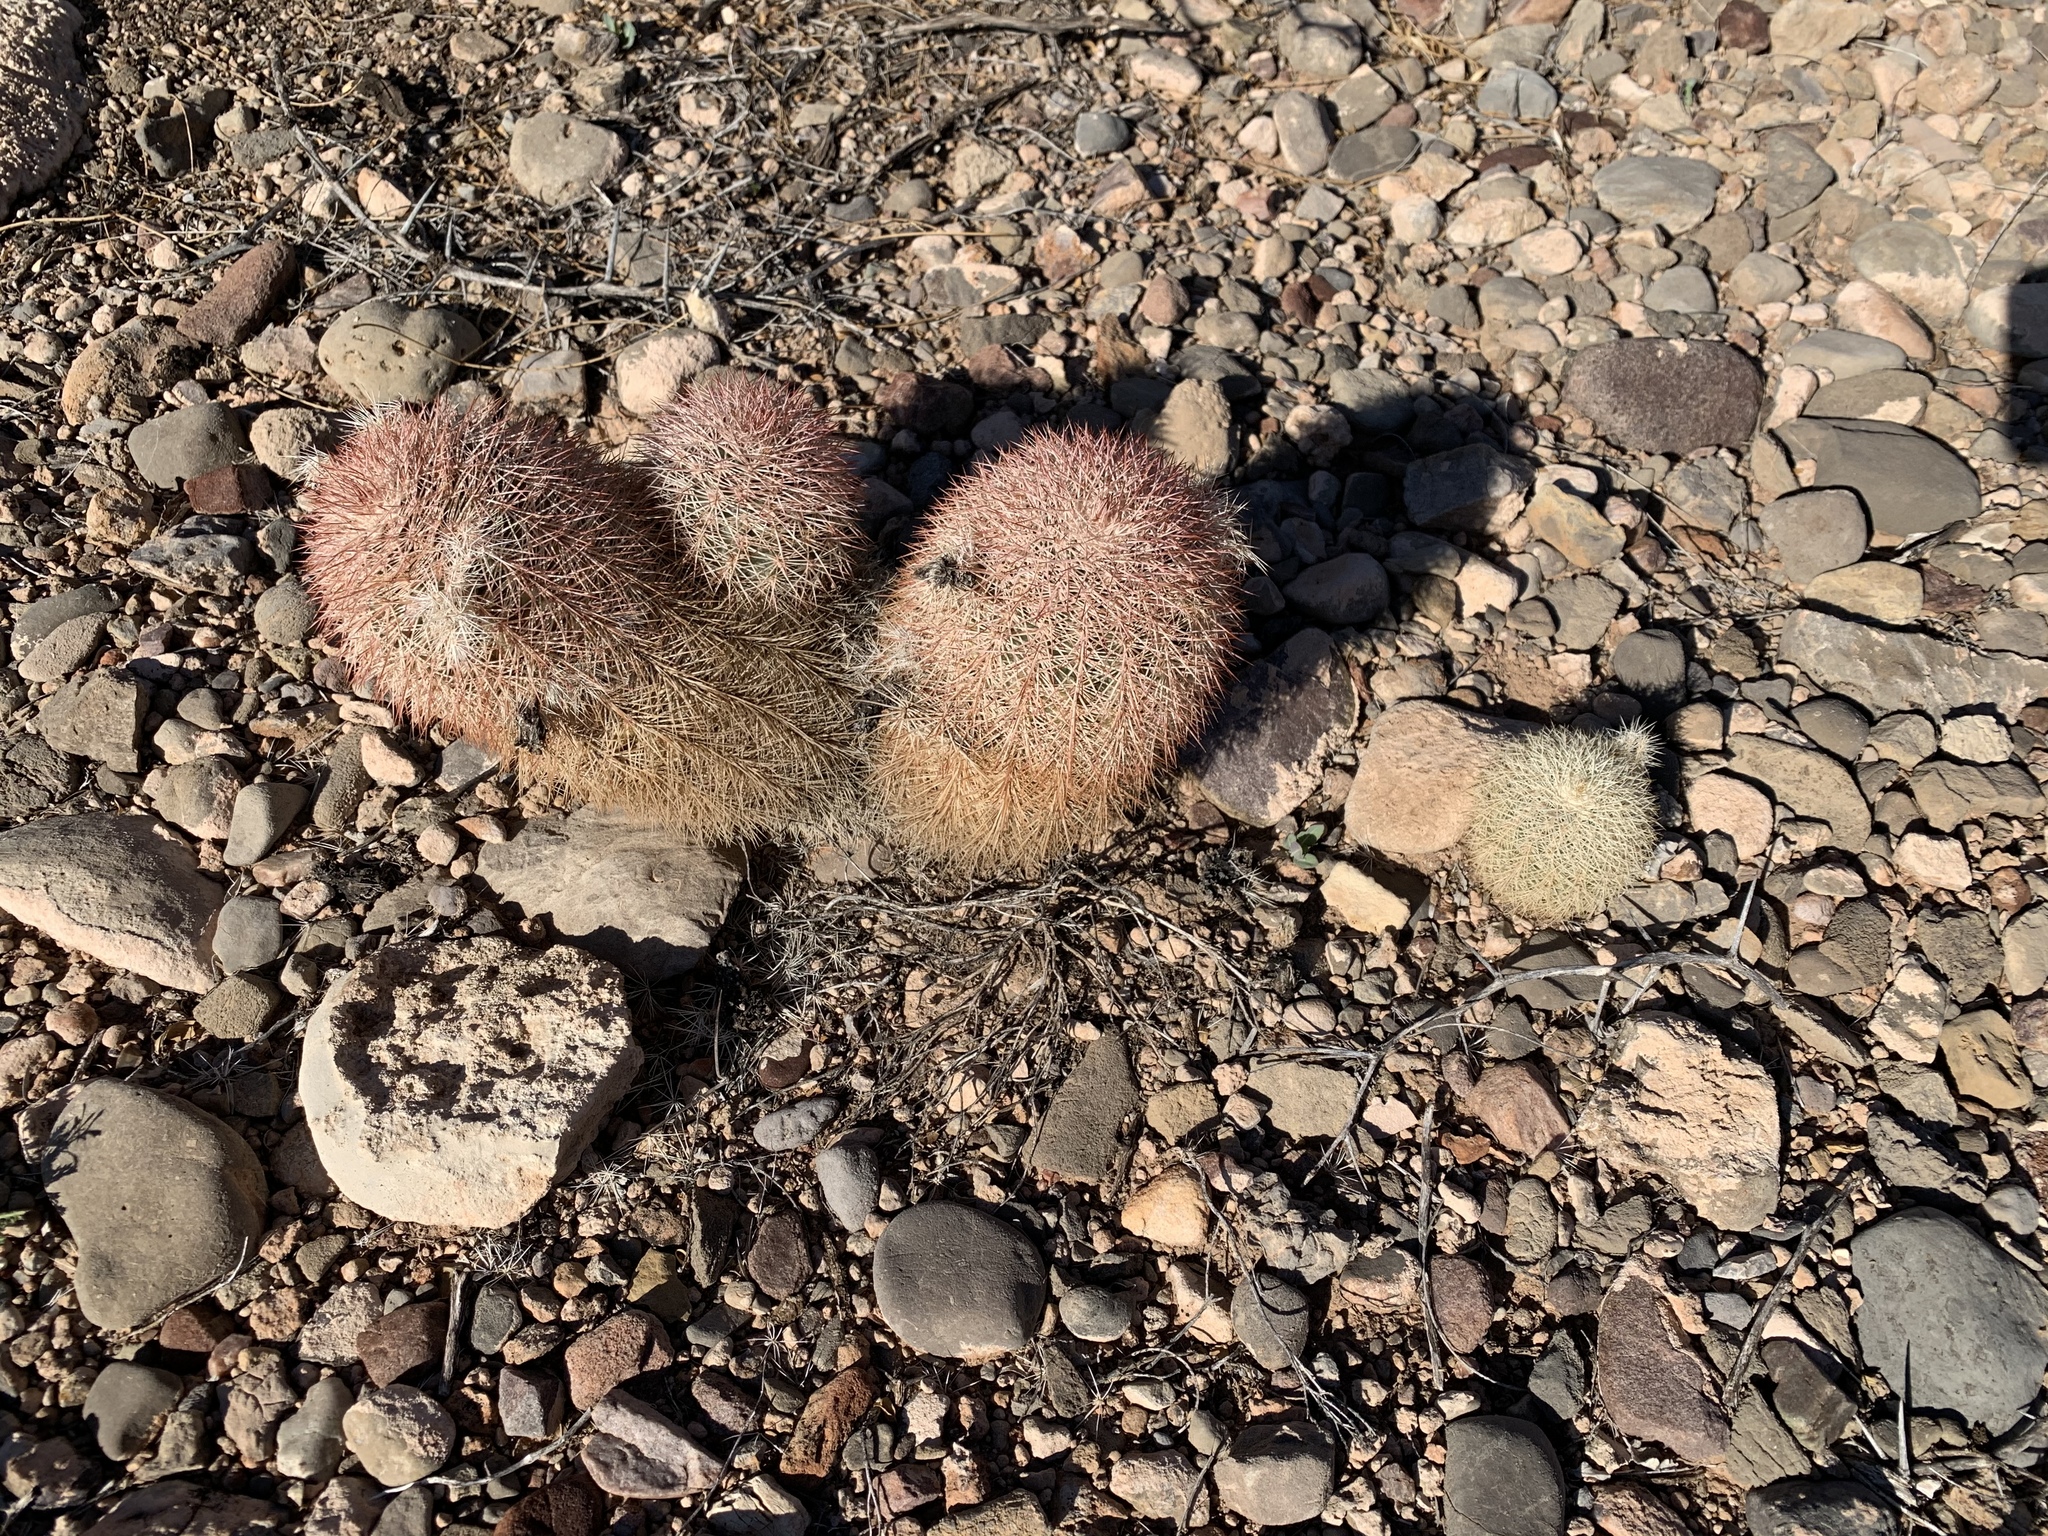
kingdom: Plantae
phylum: Tracheophyta
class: Magnoliopsida
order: Caryophyllales
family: Cactaceae
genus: Echinocereus
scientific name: Echinocereus dasyacanthus
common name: Spiny hedgehog cactus
